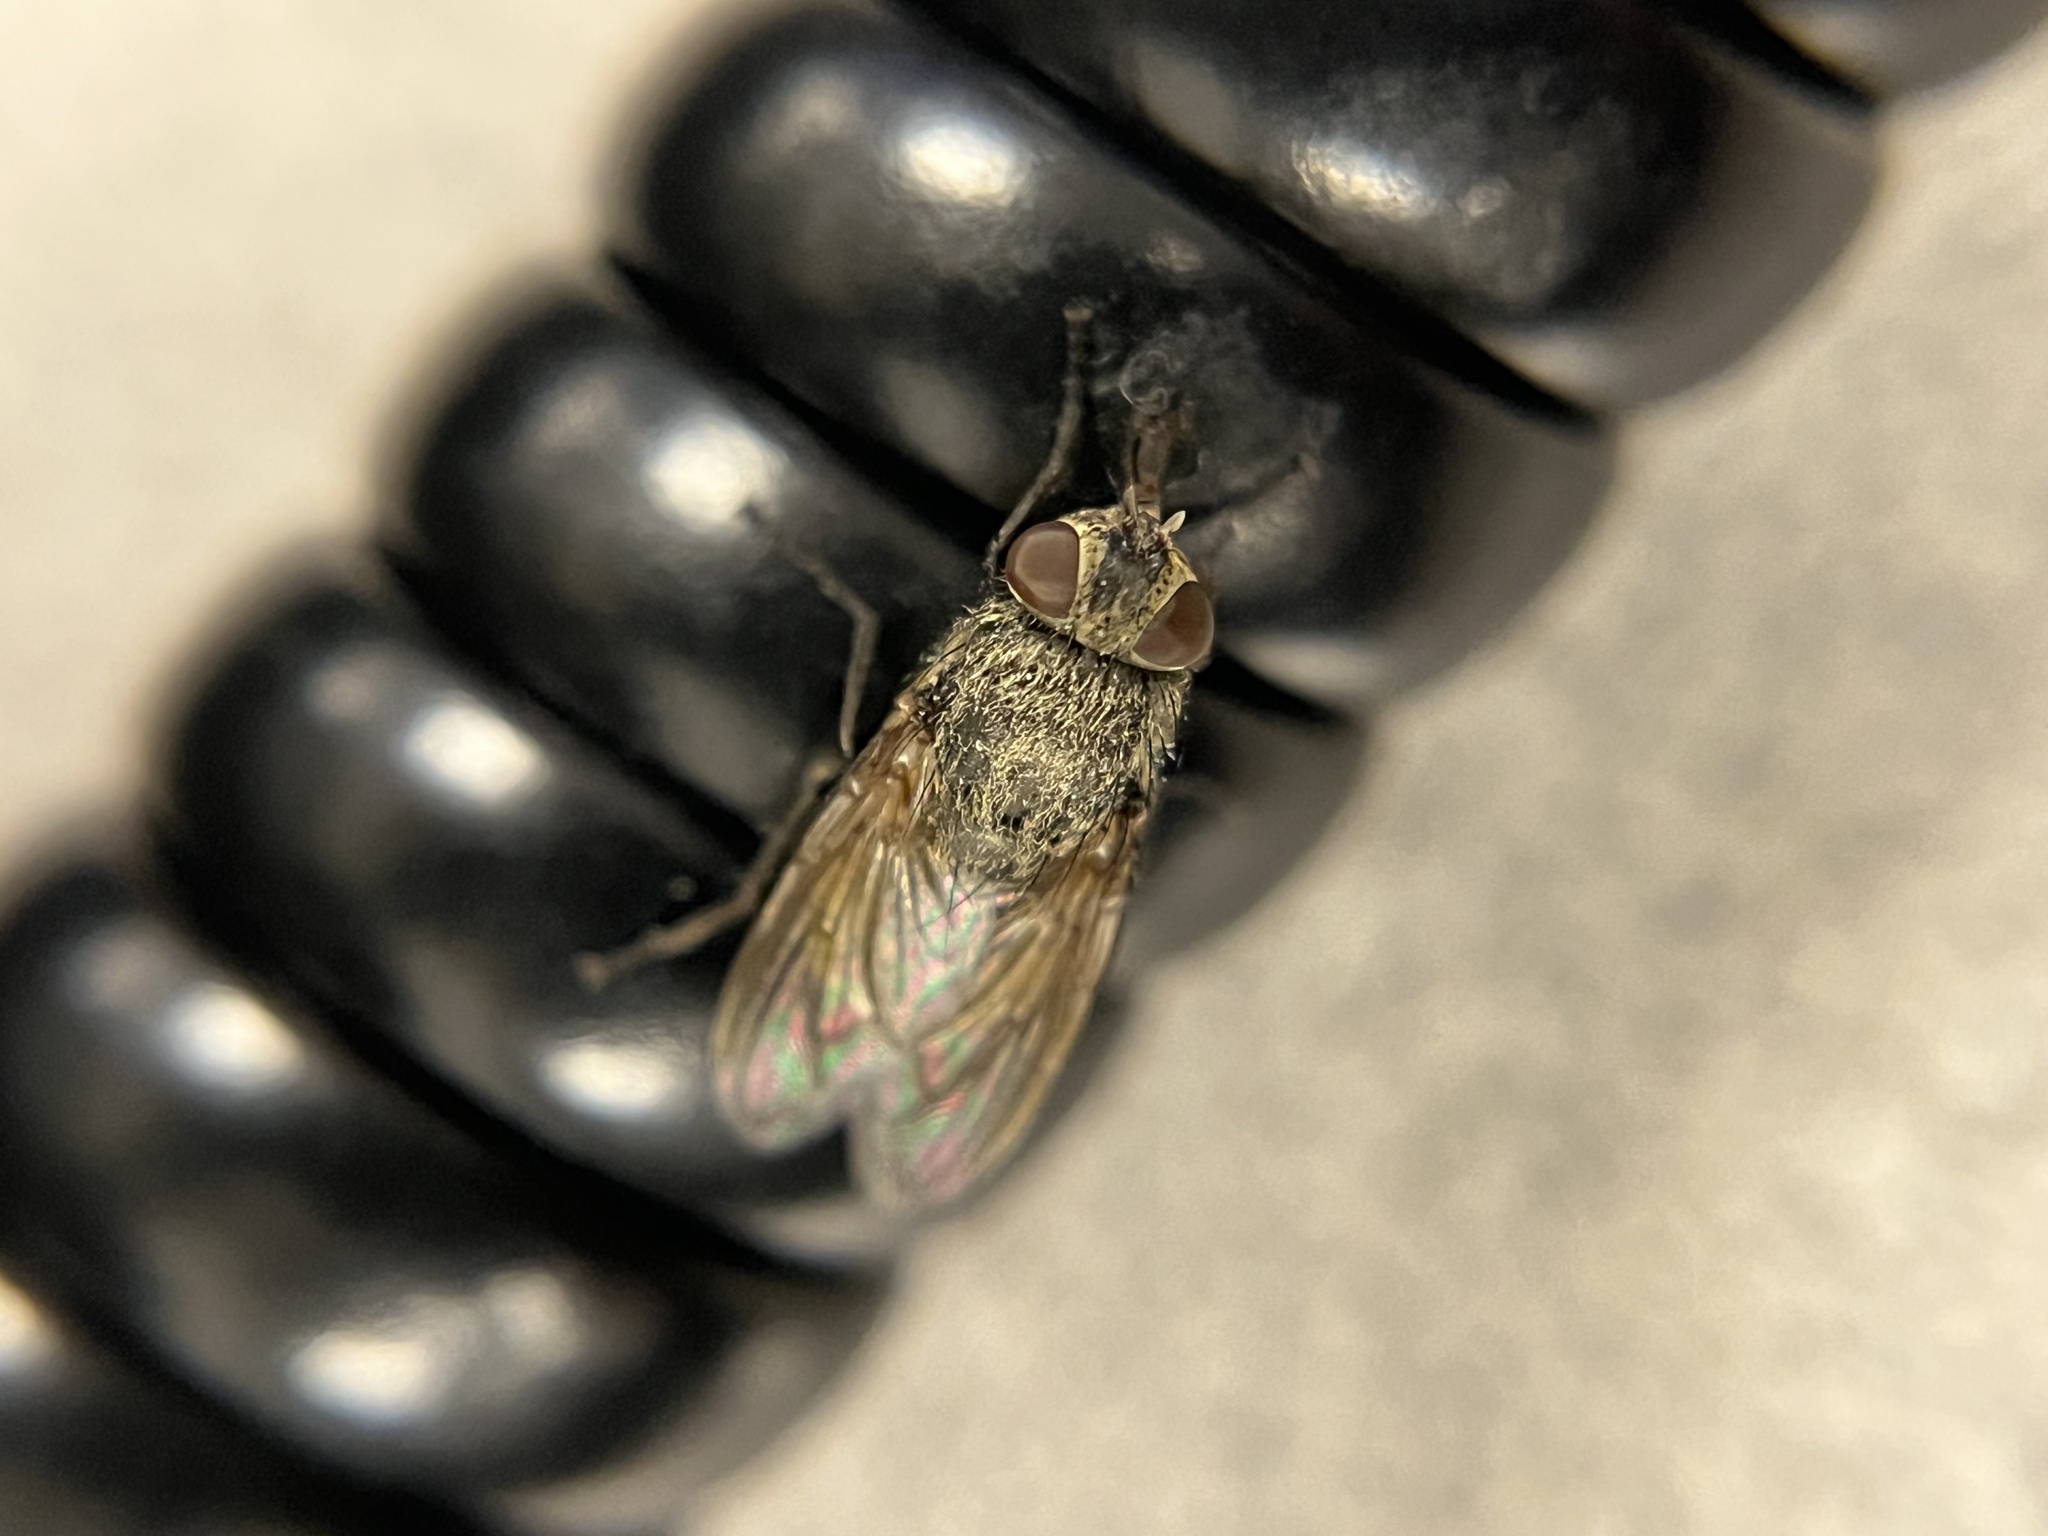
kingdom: Animalia
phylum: Arthropoda
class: Insecta
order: Diptera
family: Polleniidae
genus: Pollenia
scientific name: Pollenia
